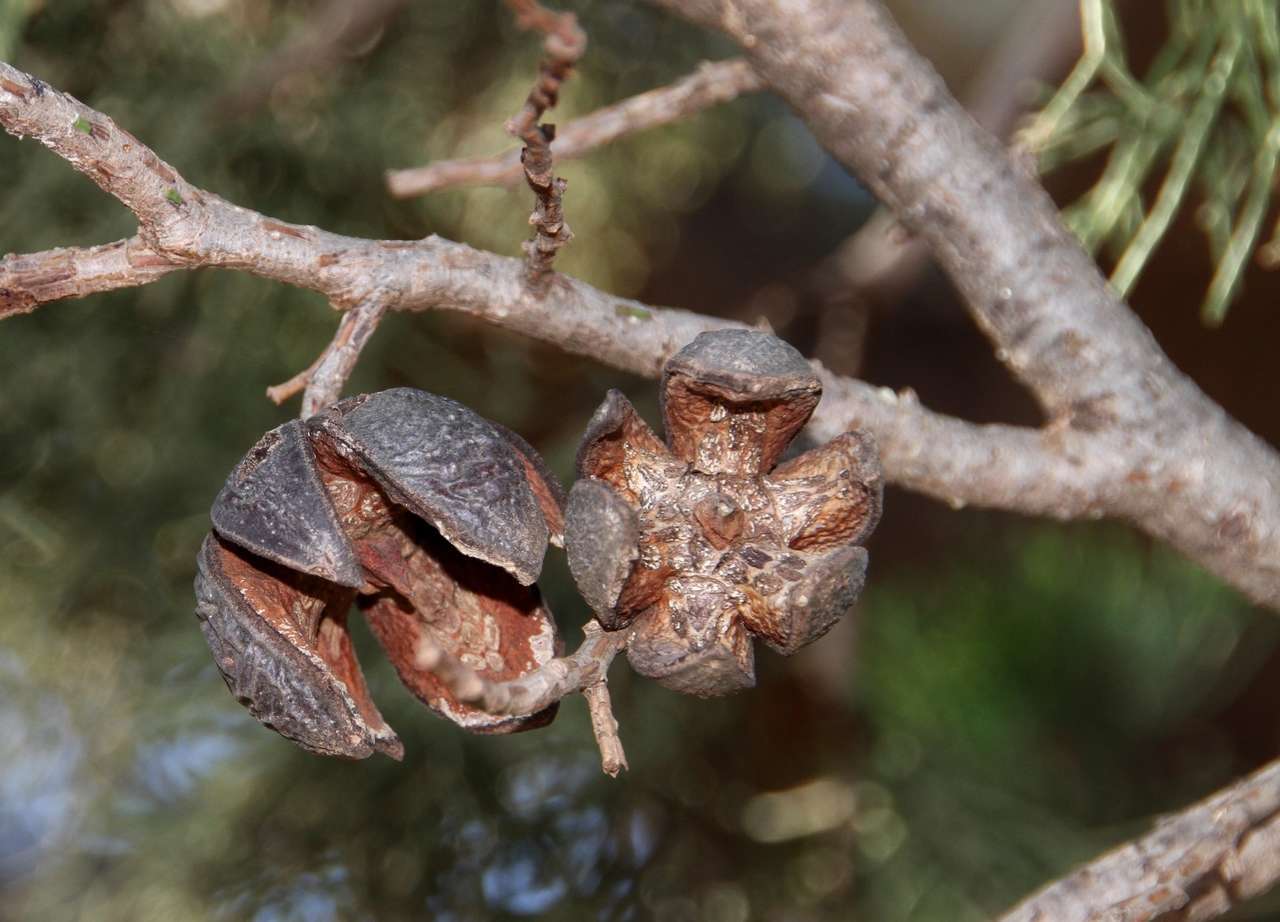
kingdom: Plantae
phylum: Tracheophyta
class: Pinopsida
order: Pinales
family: Cupressaceae
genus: Callitris
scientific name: Callitris preissii
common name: Mallee pine
